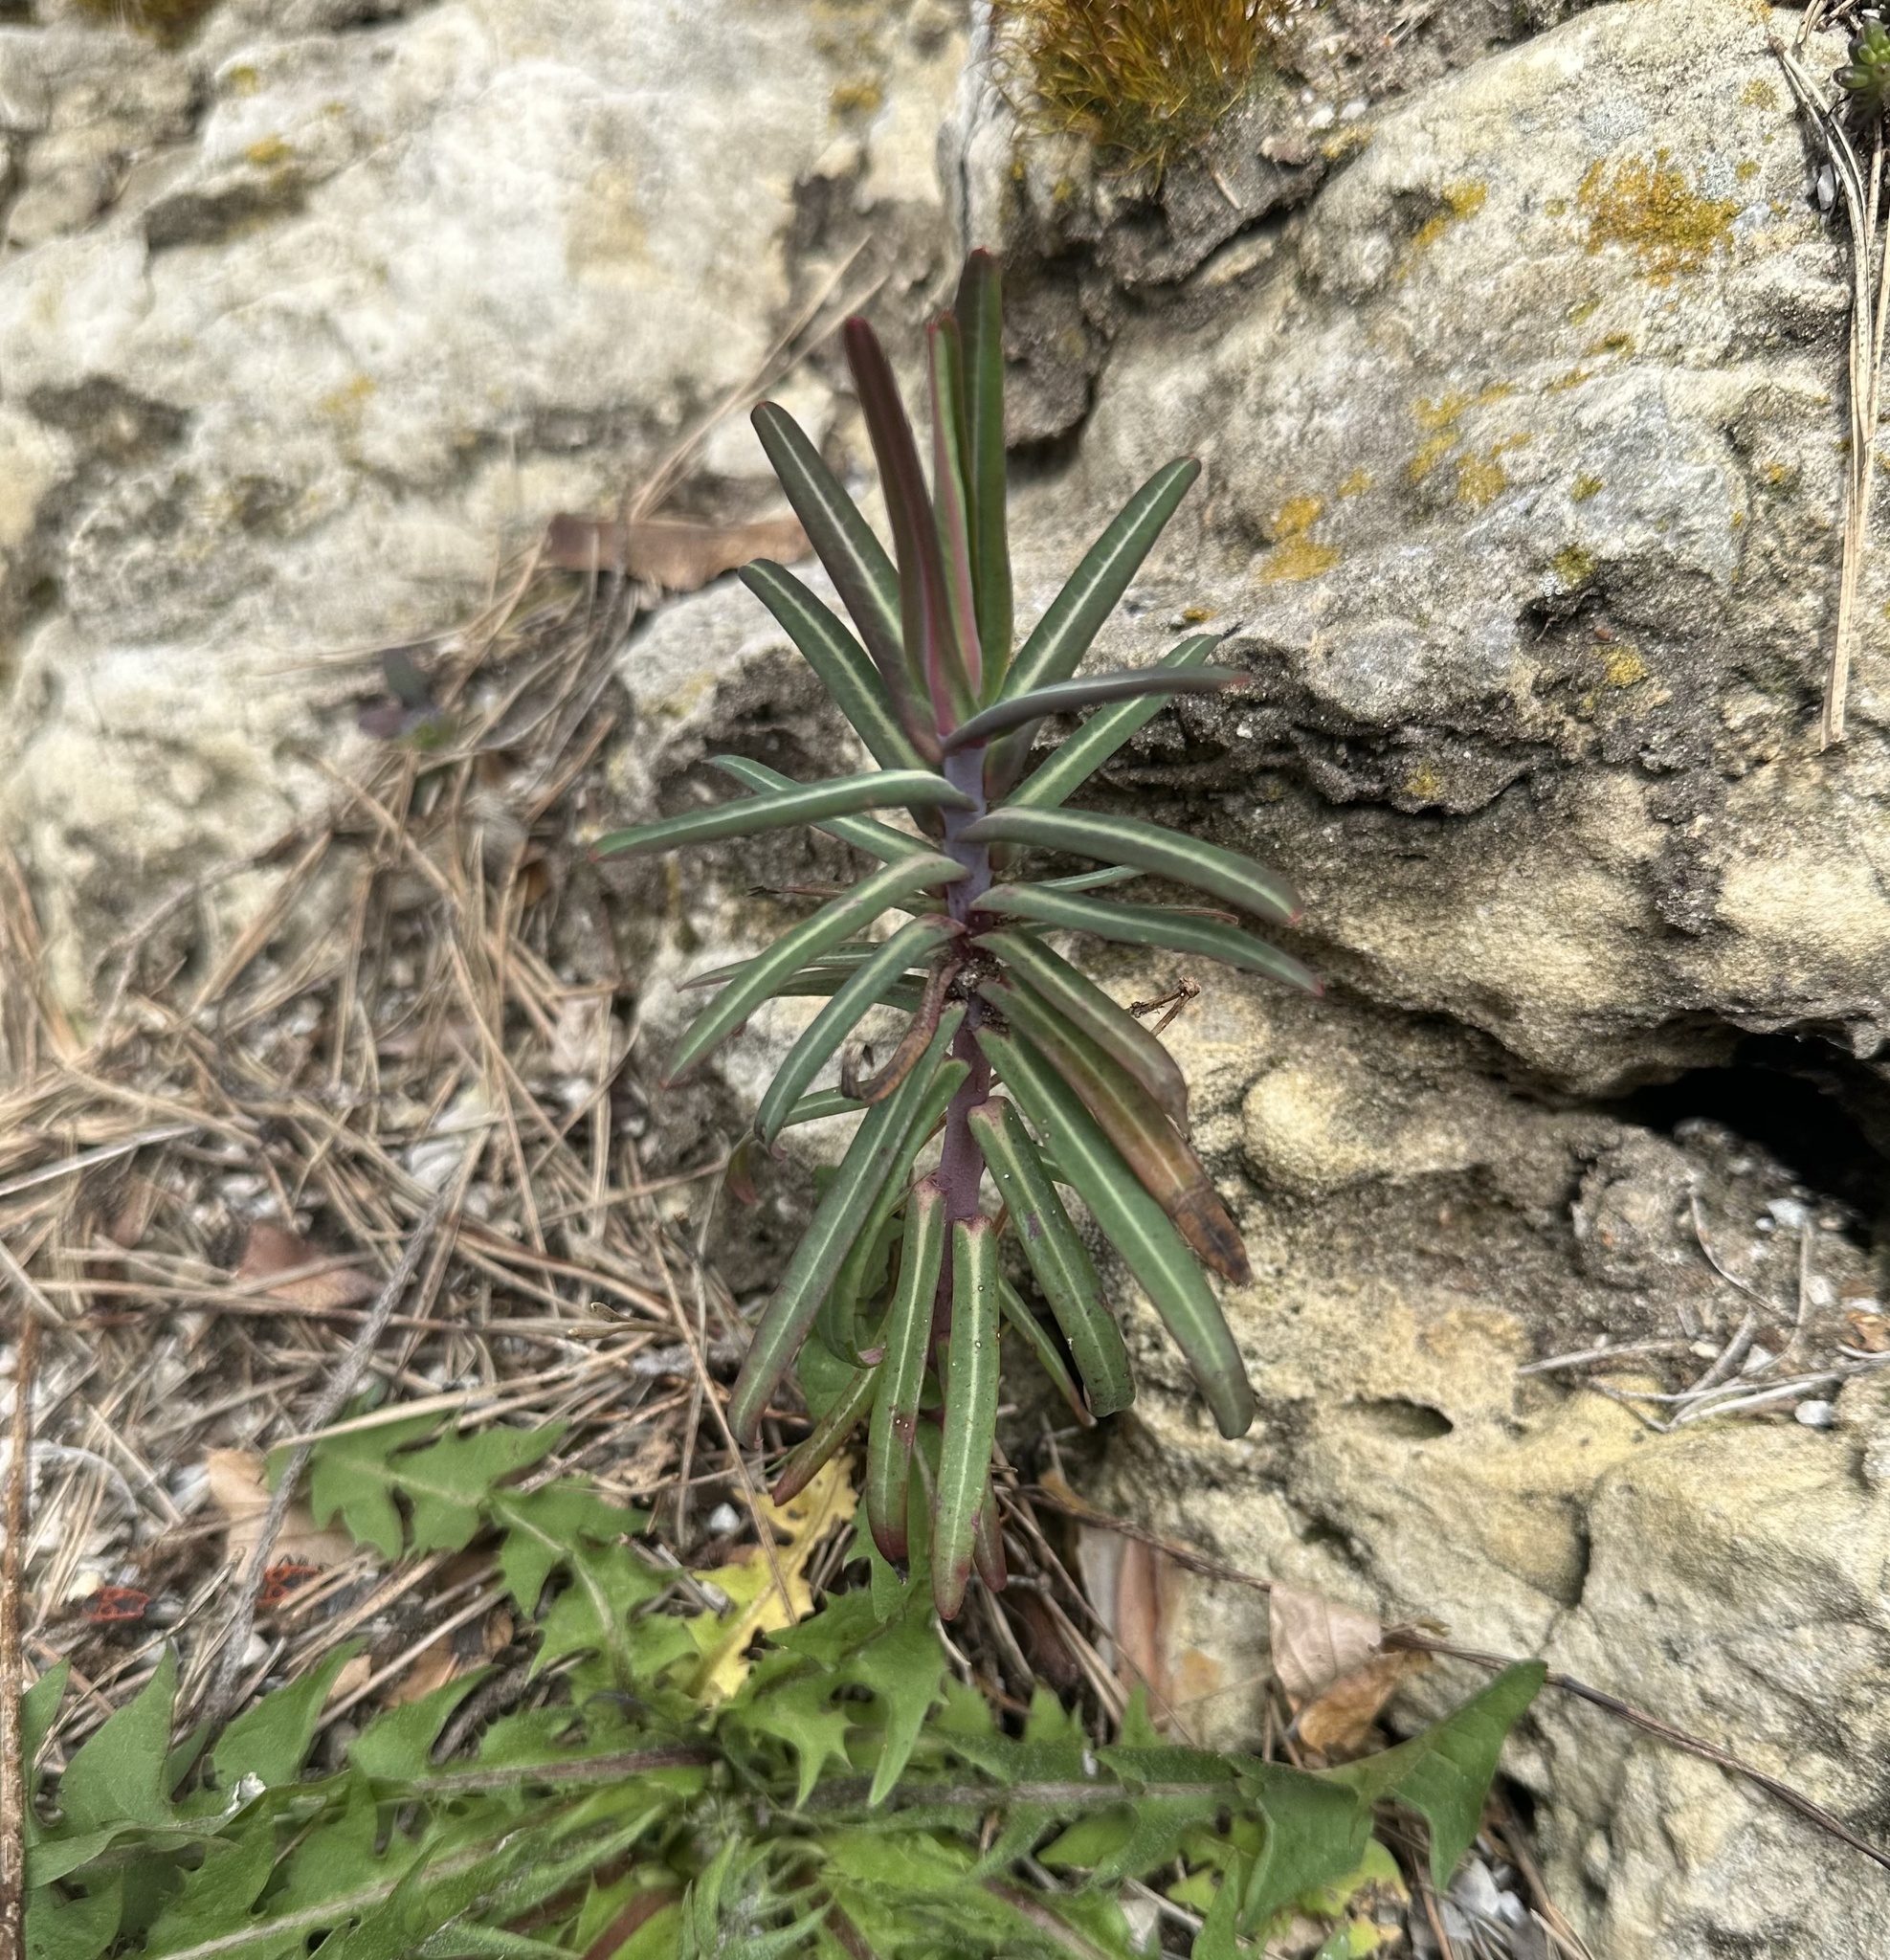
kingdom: Plantae
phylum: Tracheophyta
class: Magnoliopsida
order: Malpighiales
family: Euphorbiaceae
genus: Euphorbia
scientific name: Euphorbia lathyris
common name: Caper spurge
